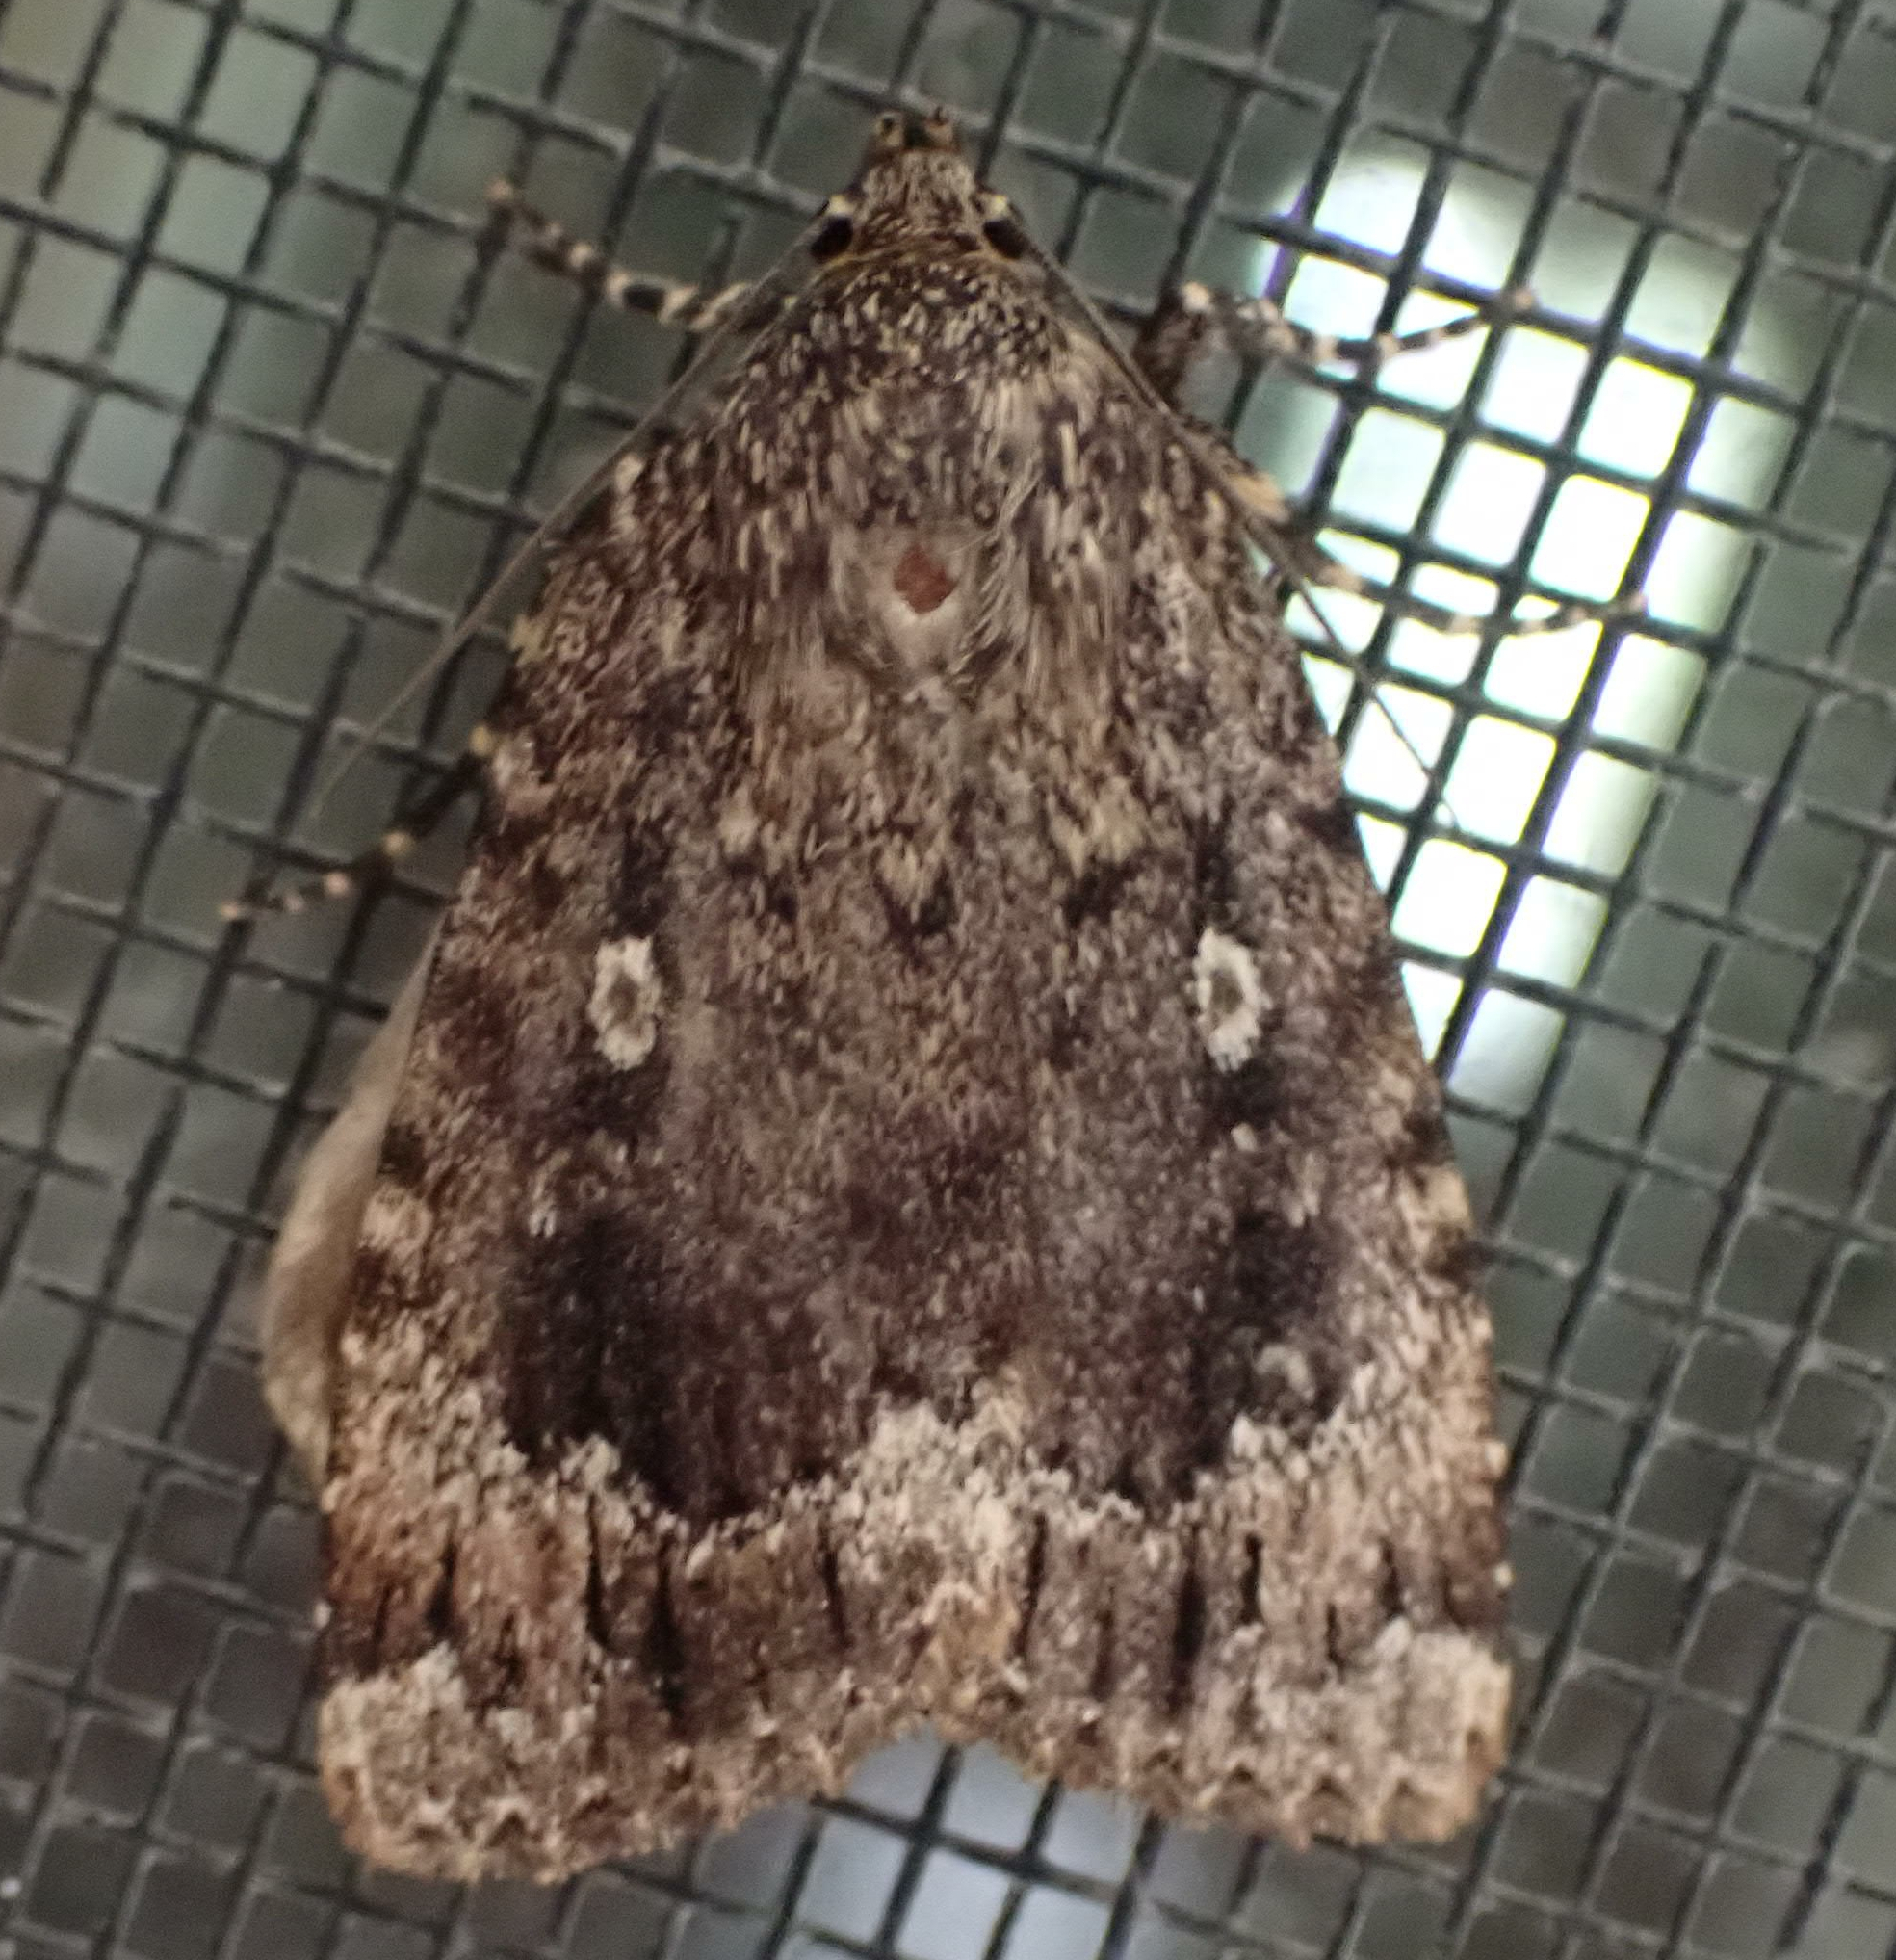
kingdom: Animalia
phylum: Arthropoda
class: Insecta
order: Lepidoptera
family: Noctuidae
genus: Amphipyra
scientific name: Amphipyra pyramidoides
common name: American copper underwing
